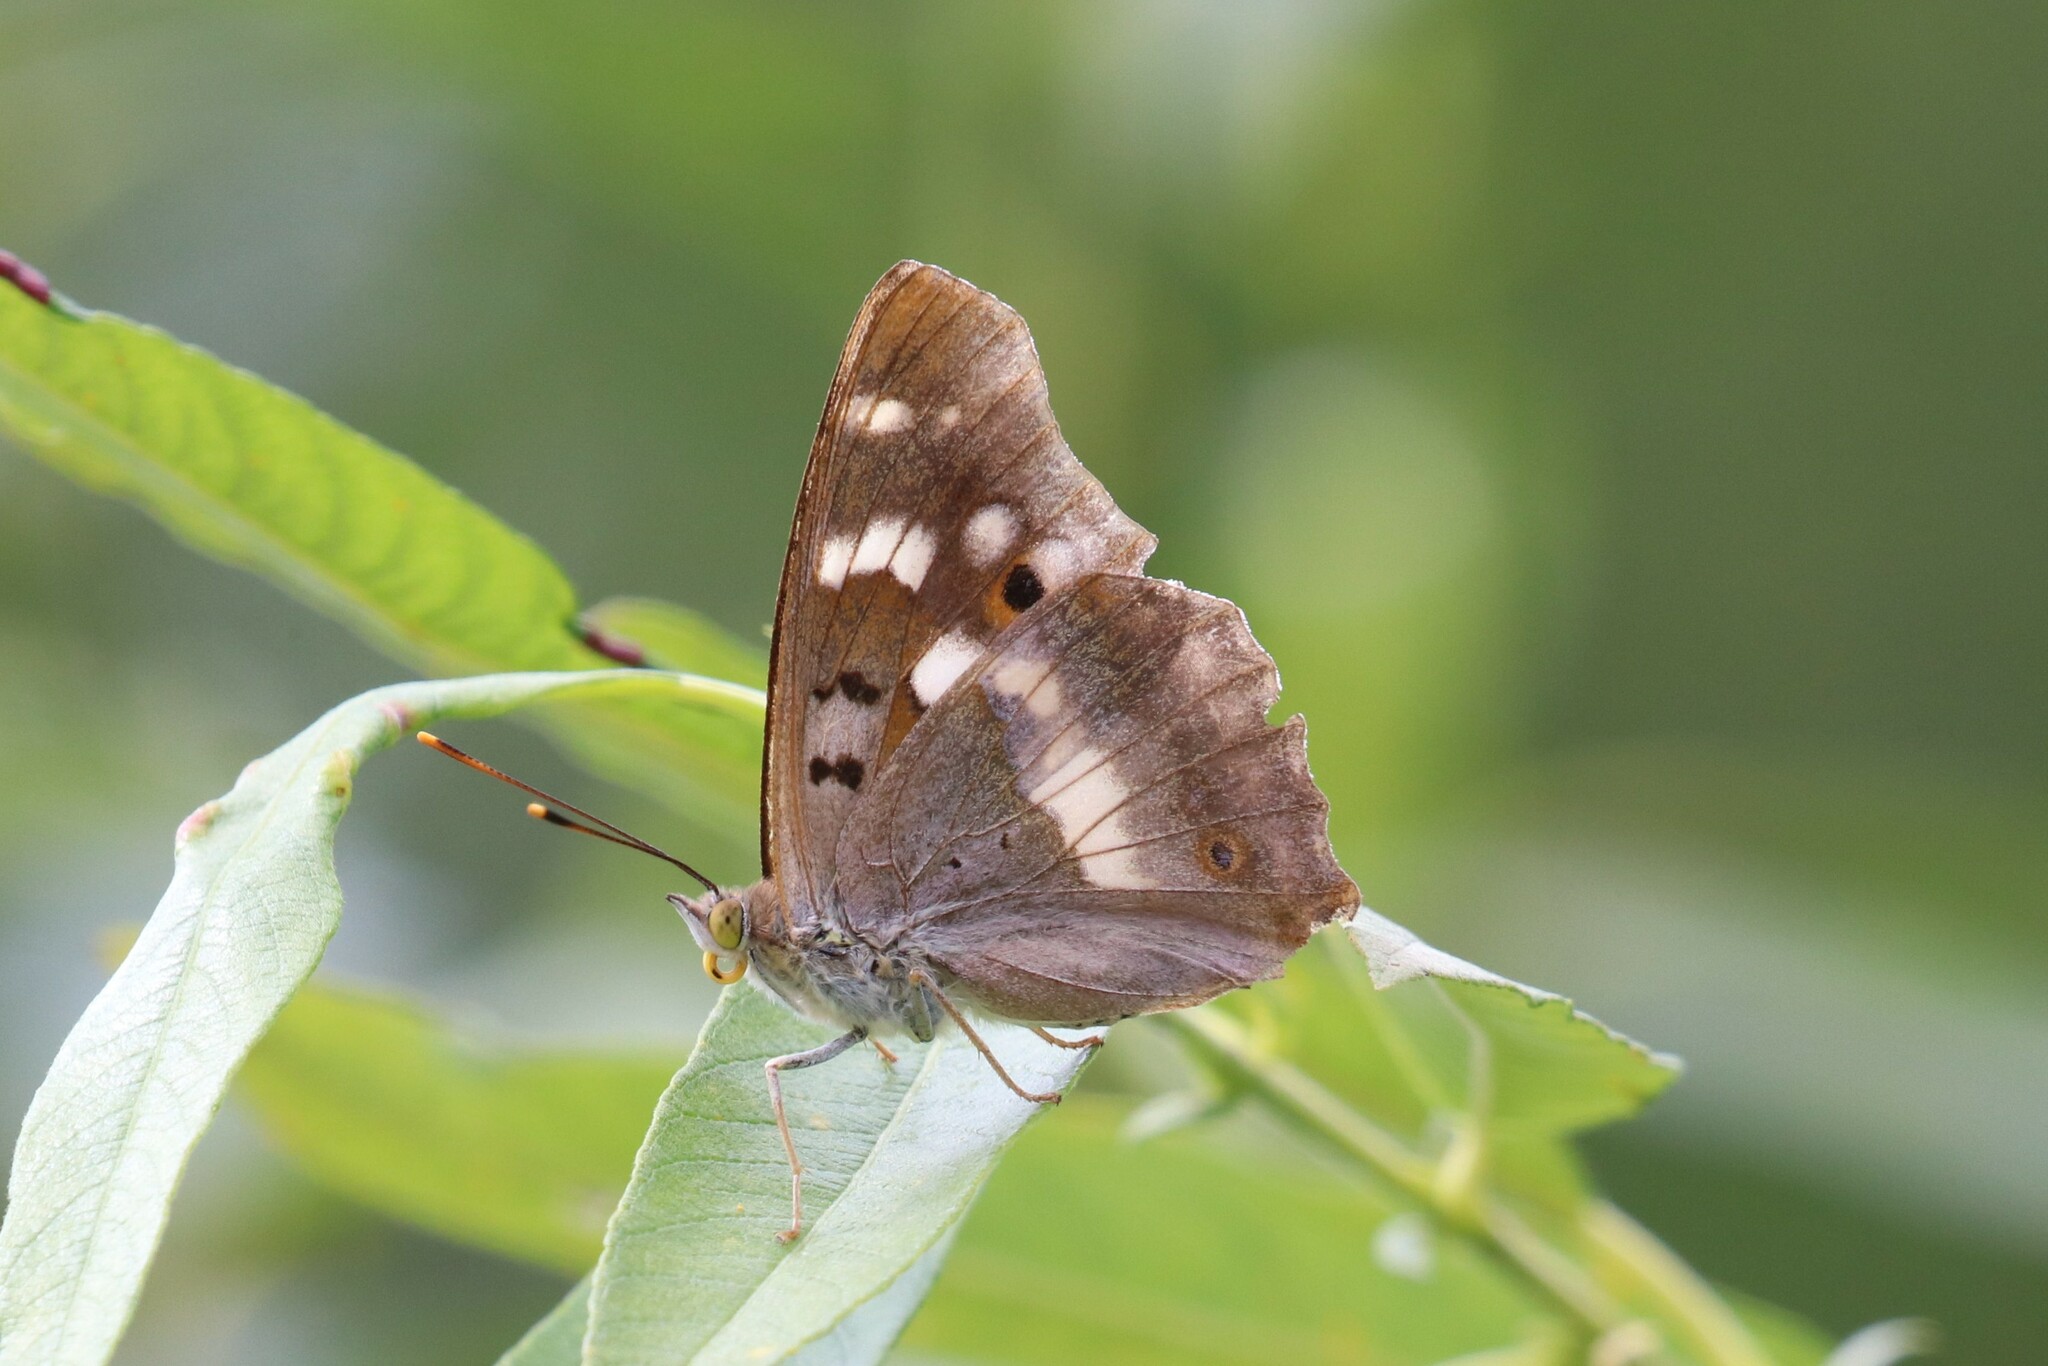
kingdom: Animalia
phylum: Arthropoda
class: Insecta
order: Lepidoptera
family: Nymphalidae
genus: Apatura
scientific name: Apatura ilia
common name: Lesser purple emperor
